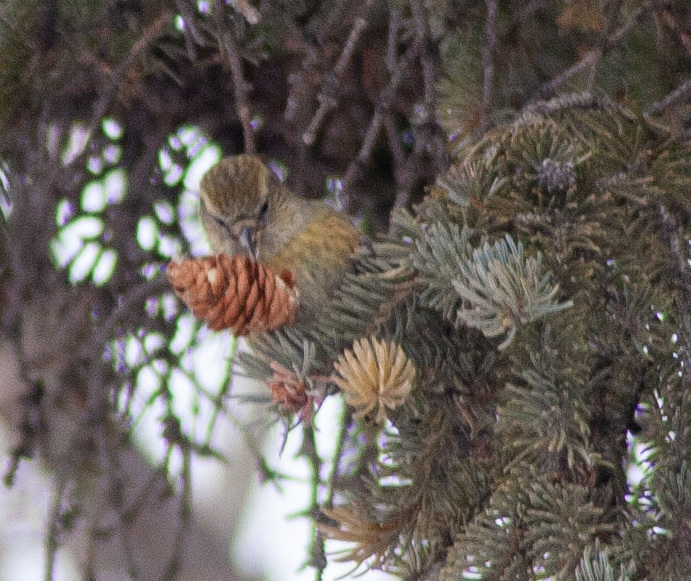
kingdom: Animalia
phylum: Chordata
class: Aves
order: Passeriformes
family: Fringillidae
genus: Loxia
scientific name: Loxia leucoptera
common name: Two-barred crossbill
